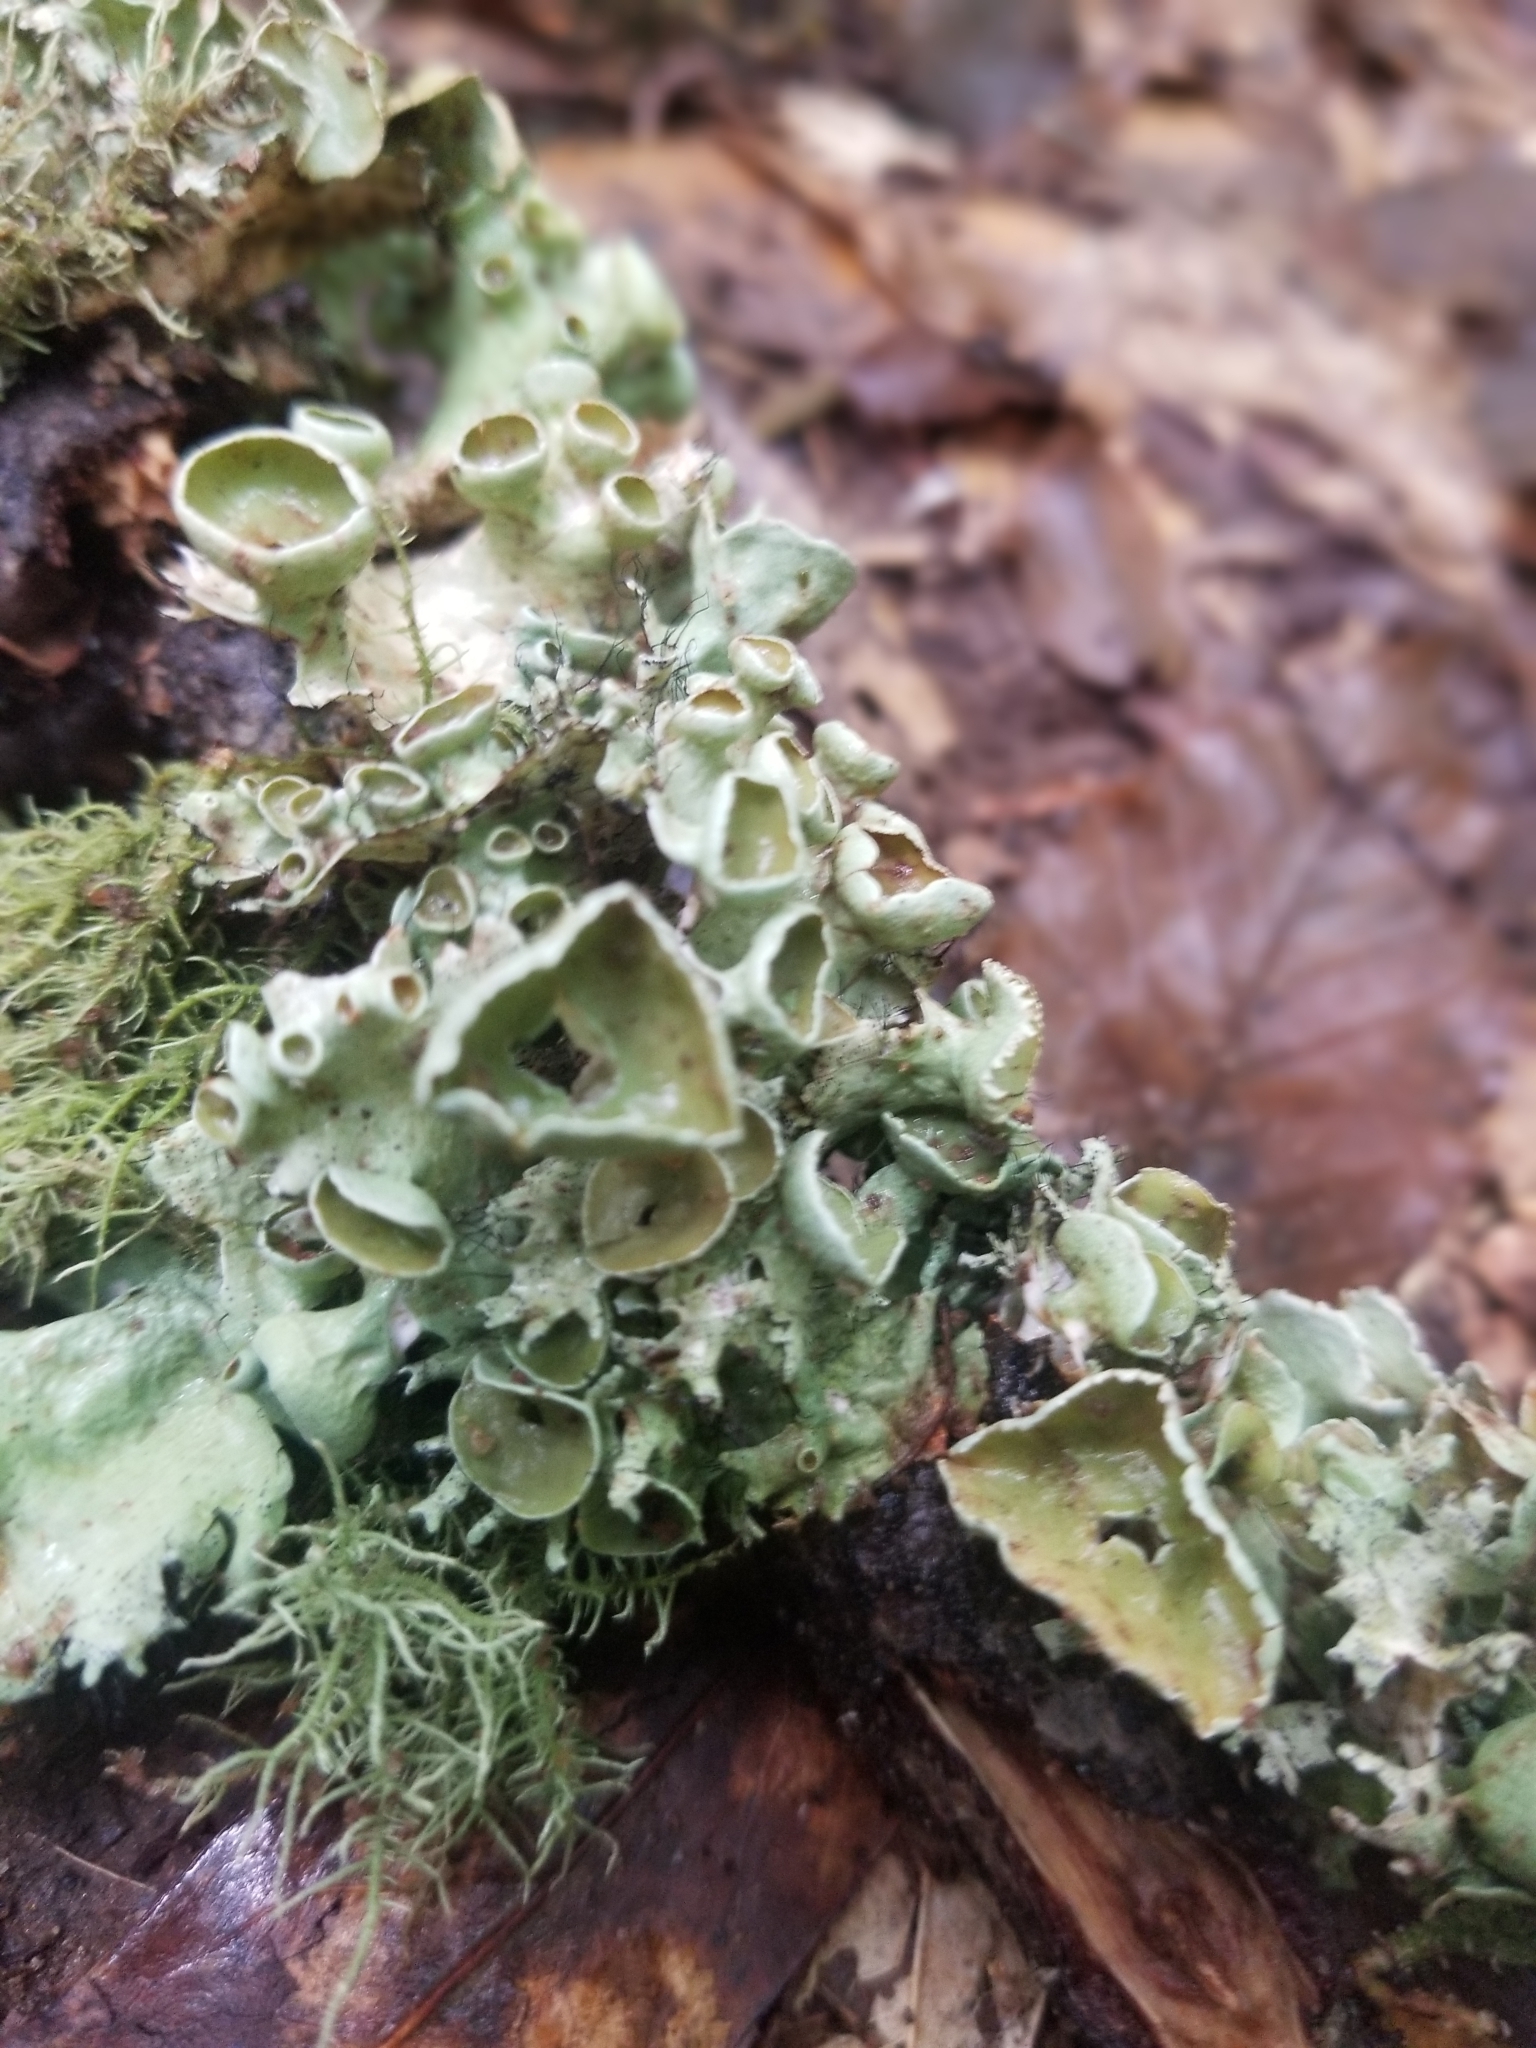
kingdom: Fungi
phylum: Ascomycota
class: Lecanoromycetes
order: Lecanorales
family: Parmeliaceae
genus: Parmotrema
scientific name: Parmotrema perforatum
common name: Perforated ruffle lichen
